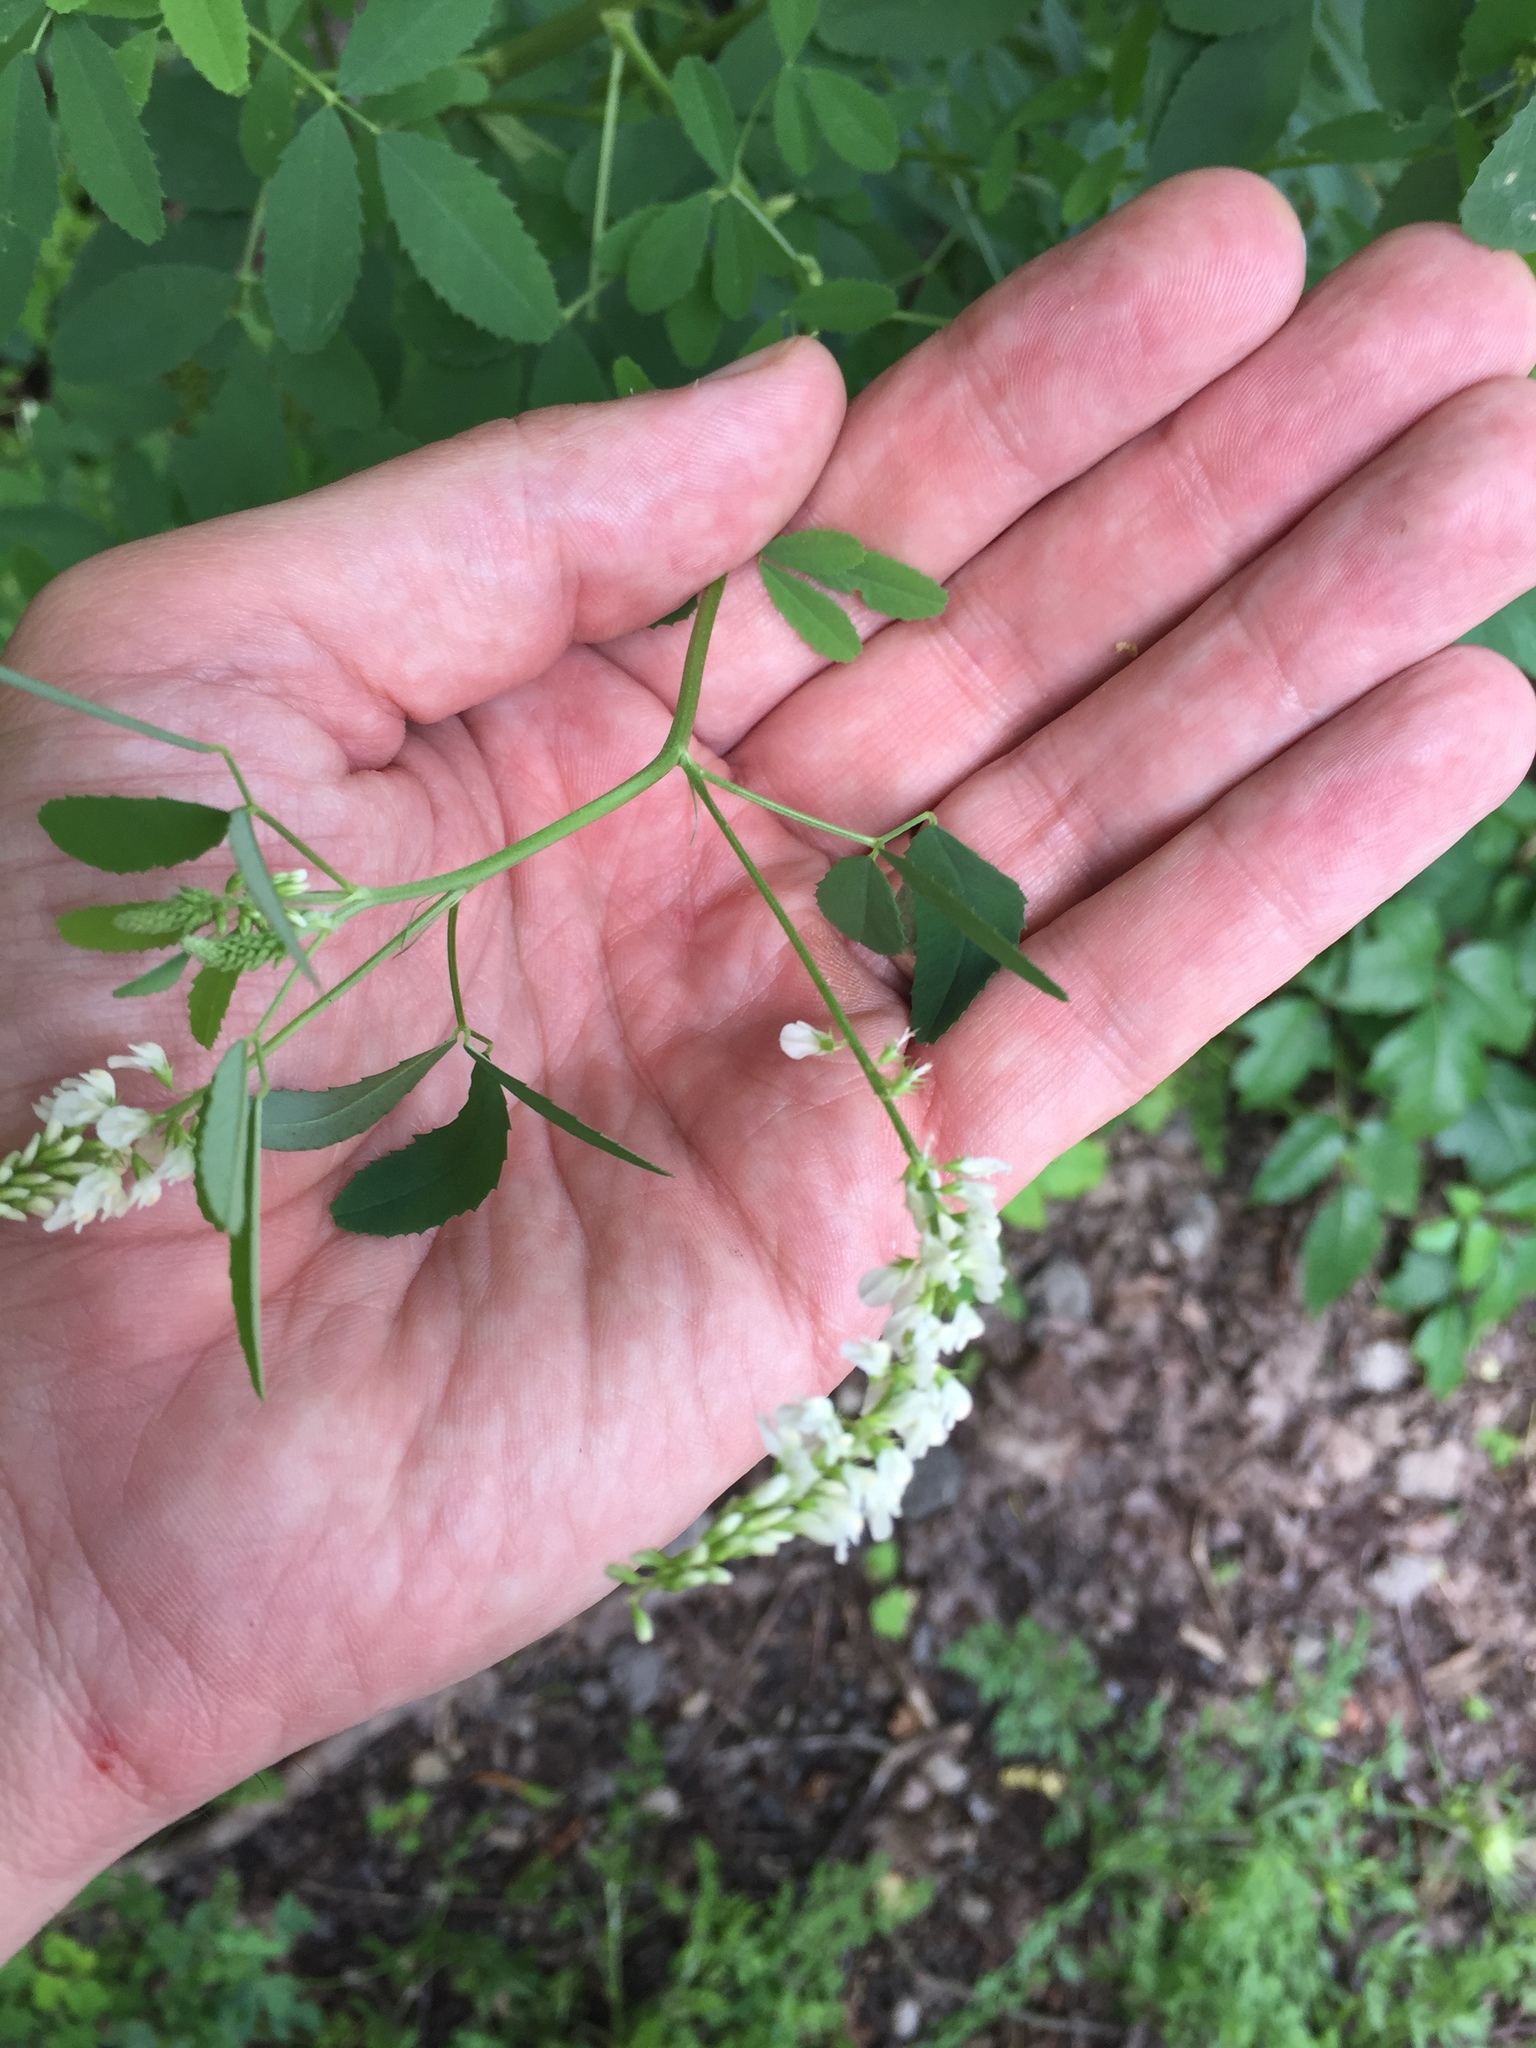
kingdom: Plantae
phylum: Tracheophyta
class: Magnoliopsida
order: Fabales
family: Fabaceae
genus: Melilotus
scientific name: Melilotus albus
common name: White melilot
